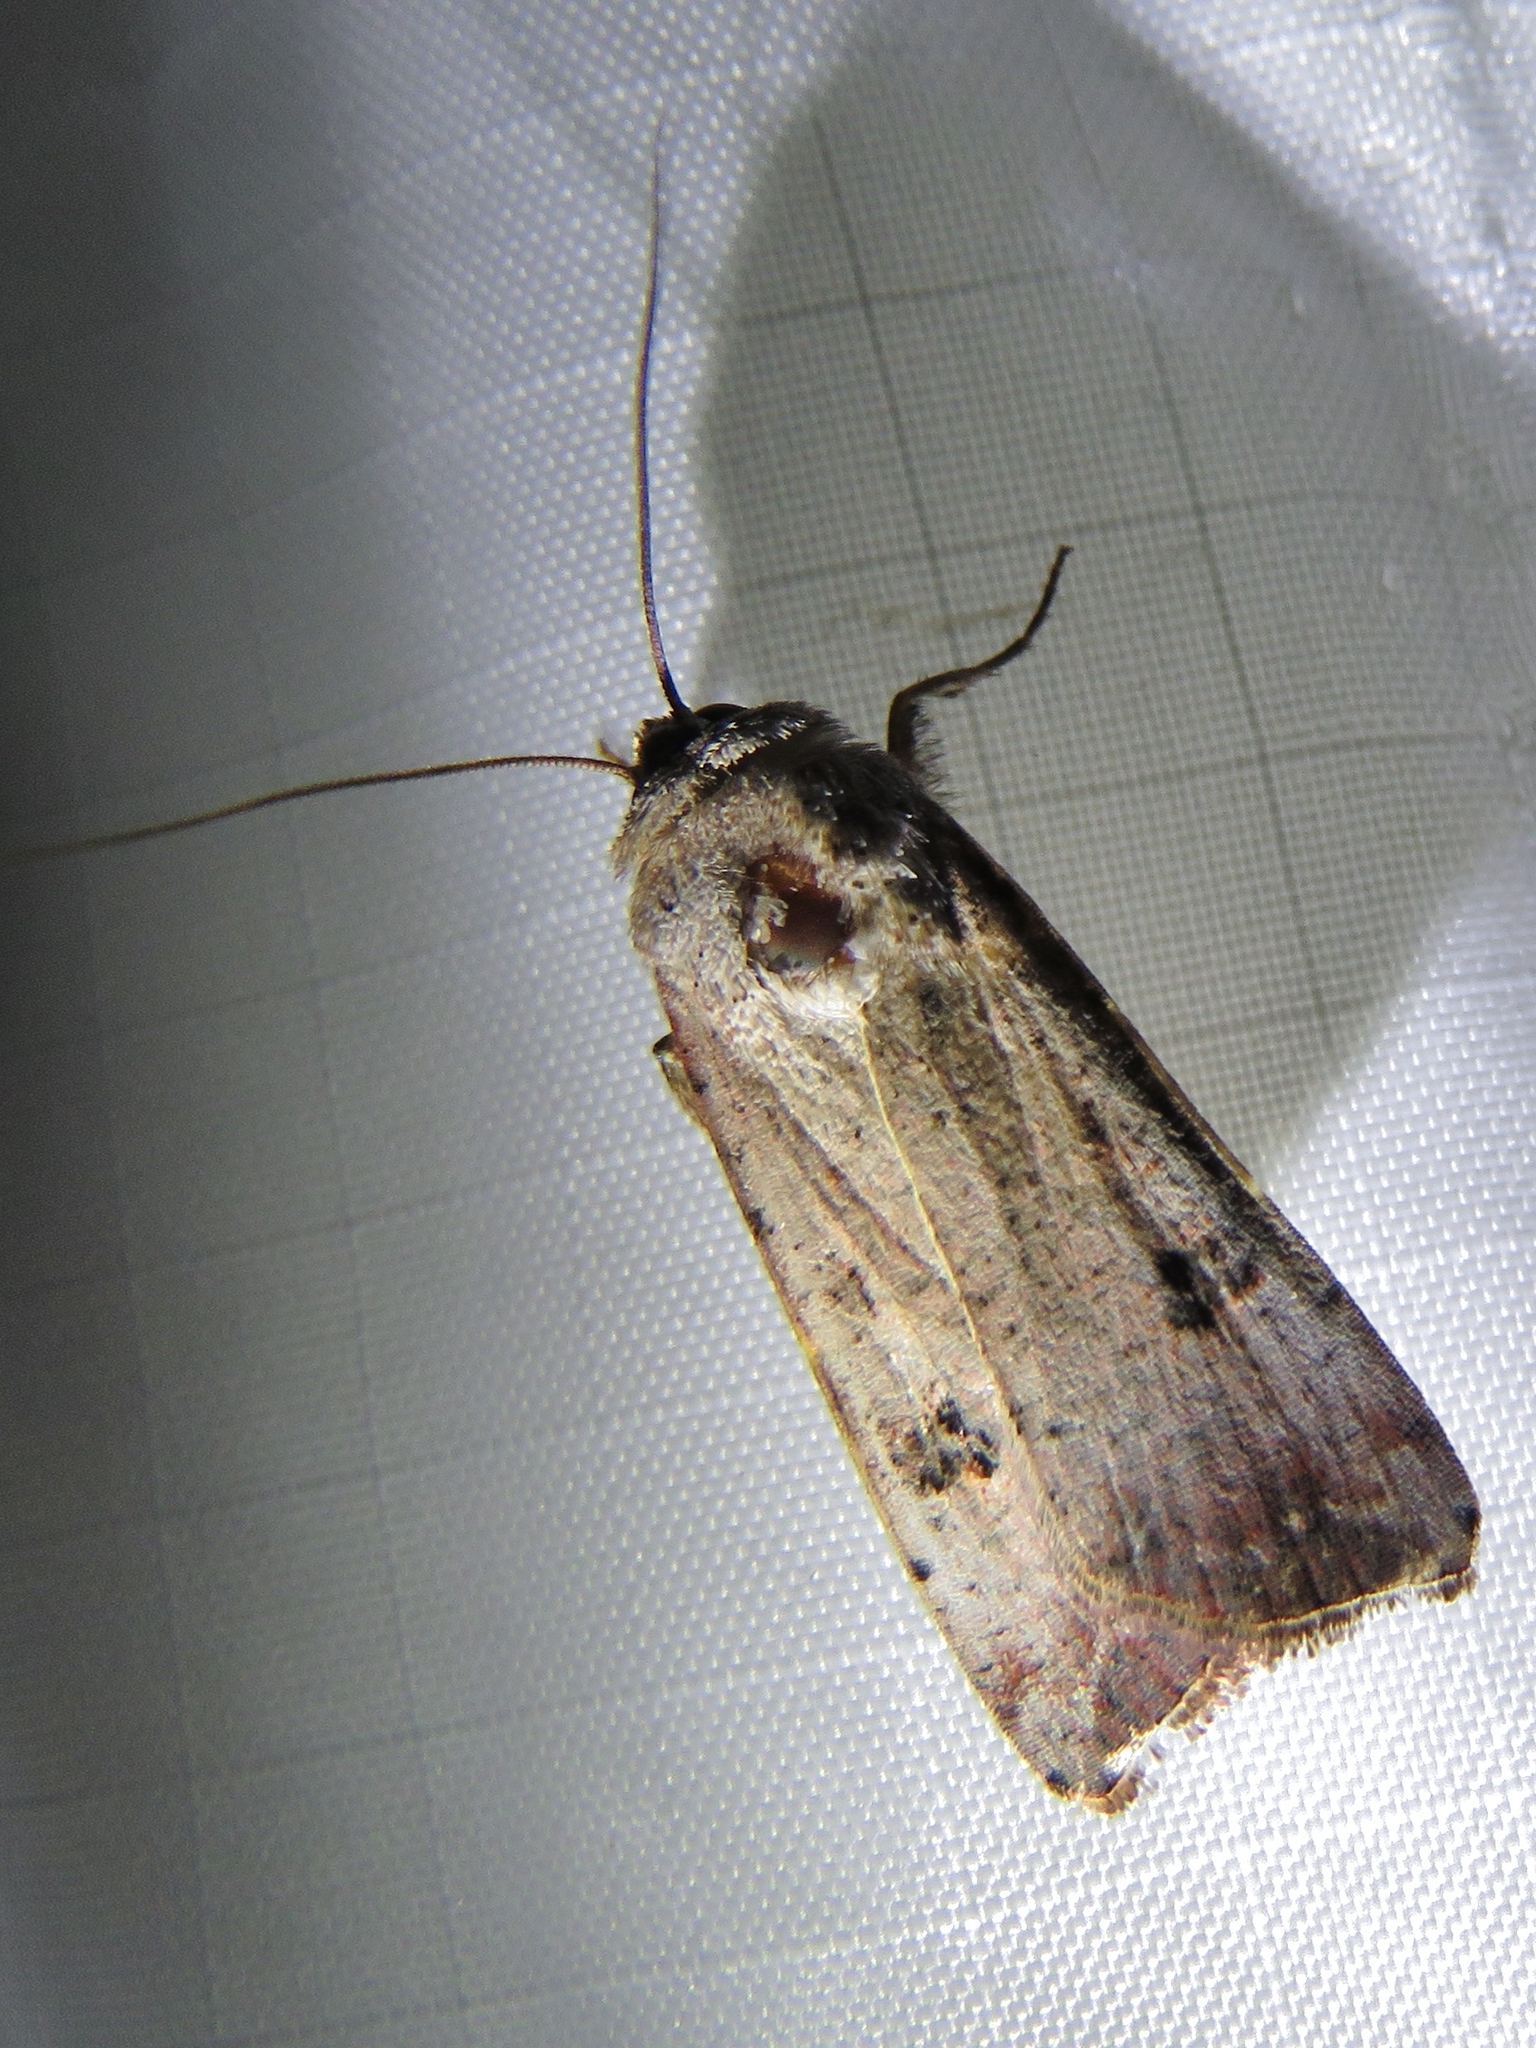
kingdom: Animalia
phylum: Arthropoda
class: Insecta
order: Lepidoptera
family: Noctuidae
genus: Anicla
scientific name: Anicla infecta
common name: Green cutworm
